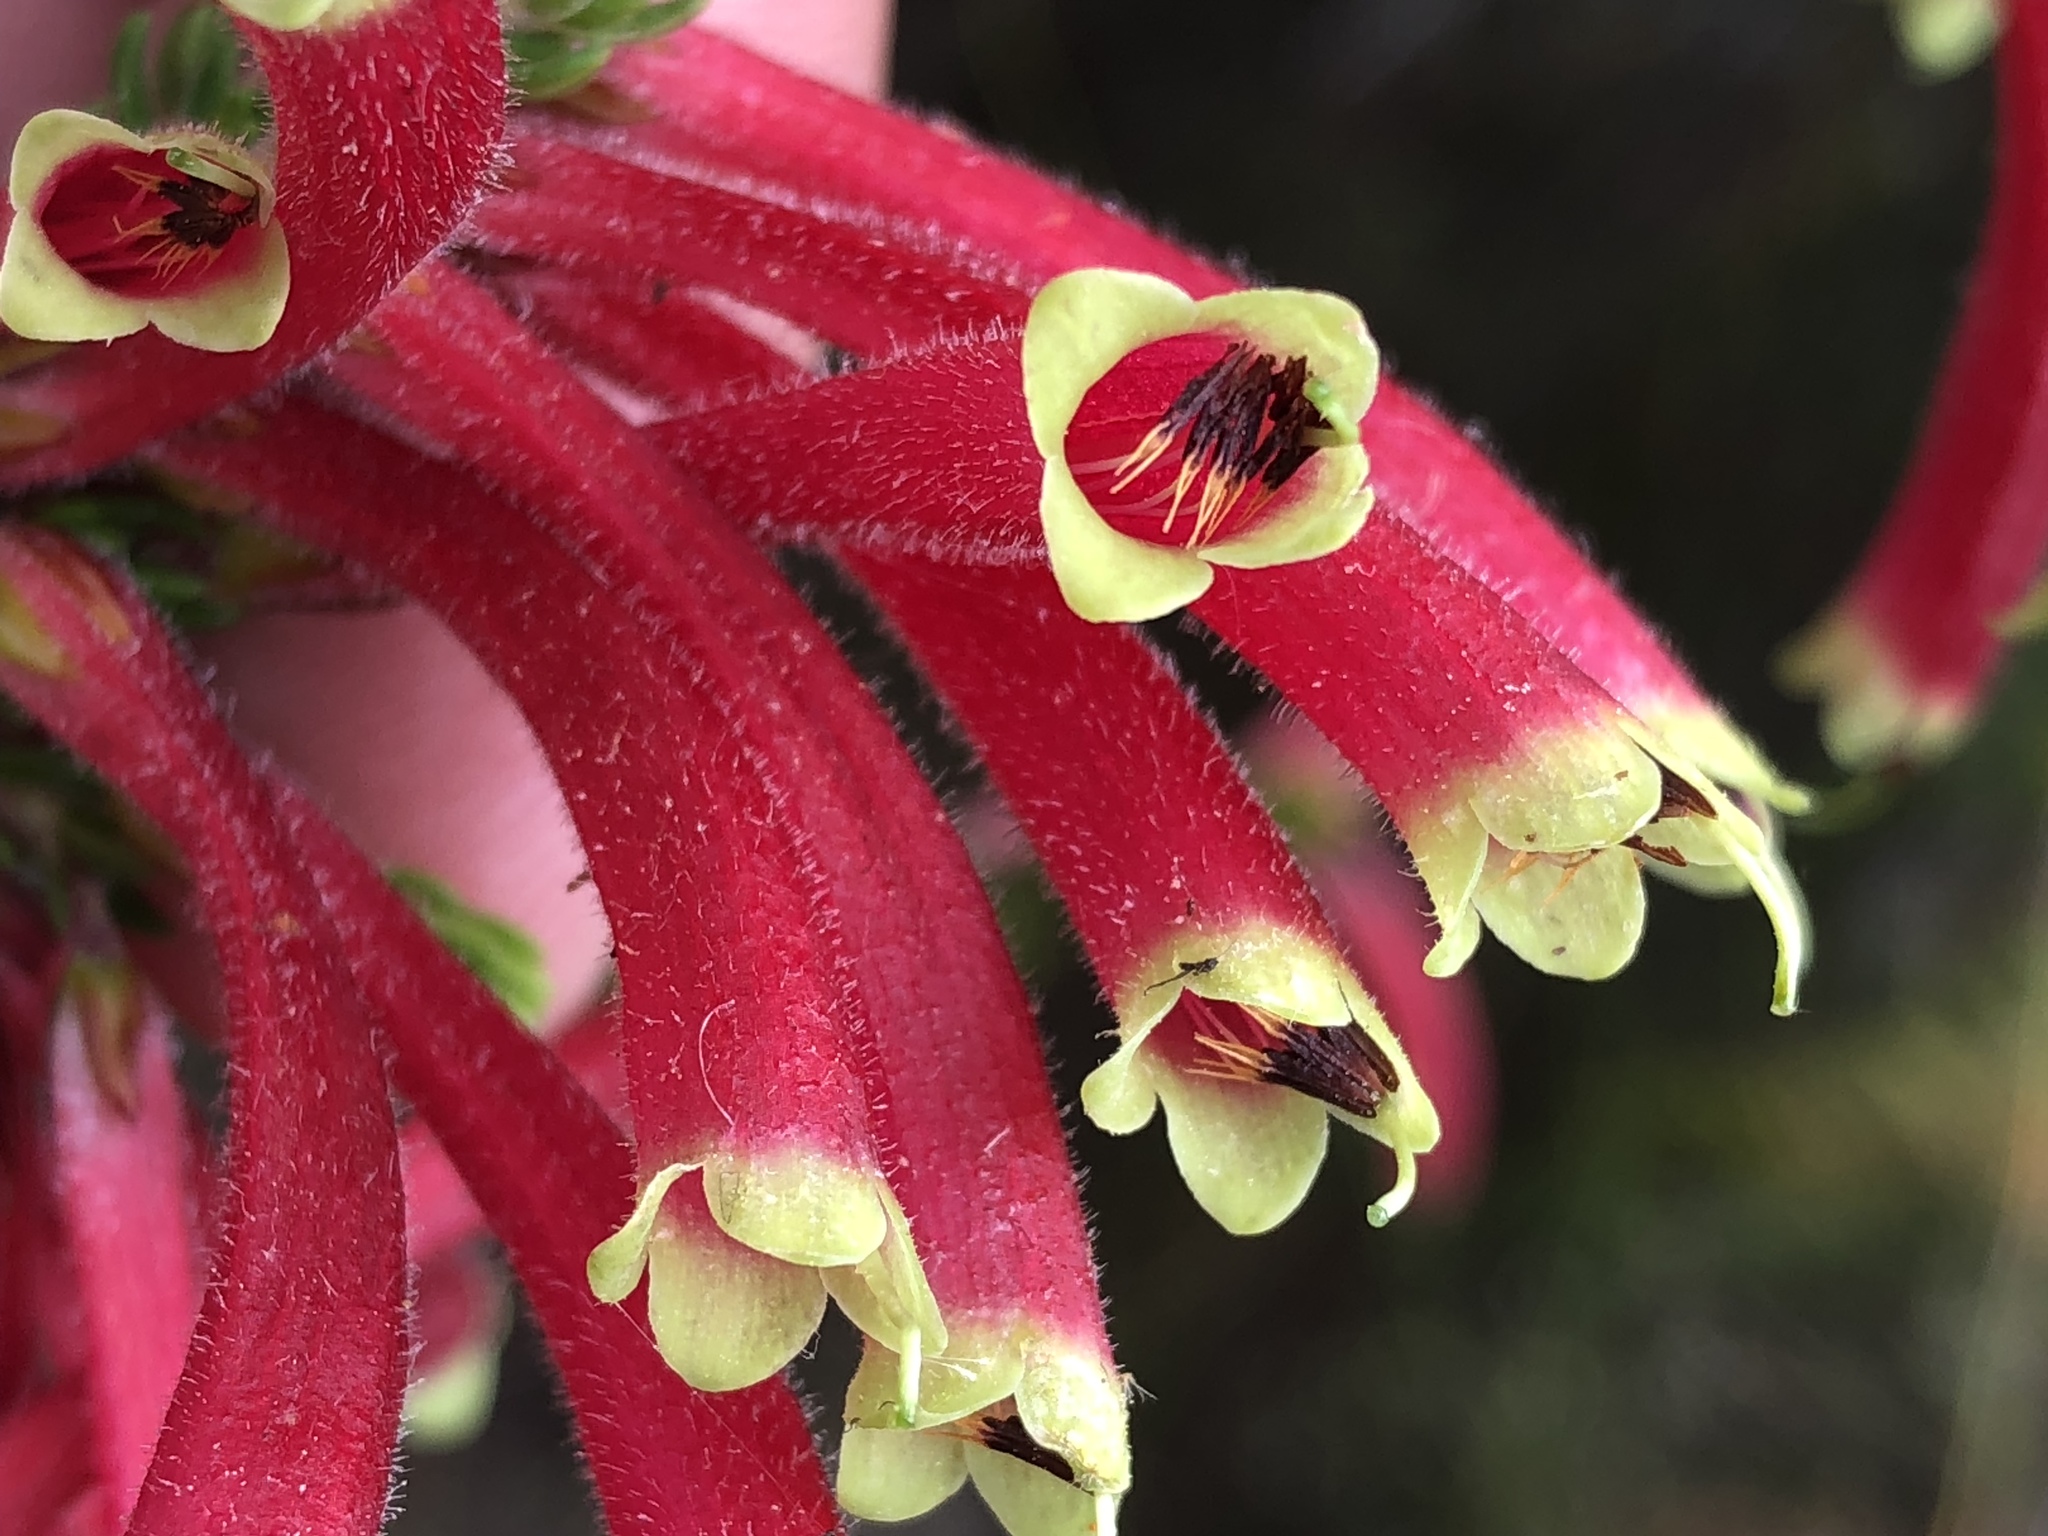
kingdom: Plantae
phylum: Tracheophyta
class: Magnoliopsida
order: Ericales
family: Ericaceae
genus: Erica
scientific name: Erica densifolia
